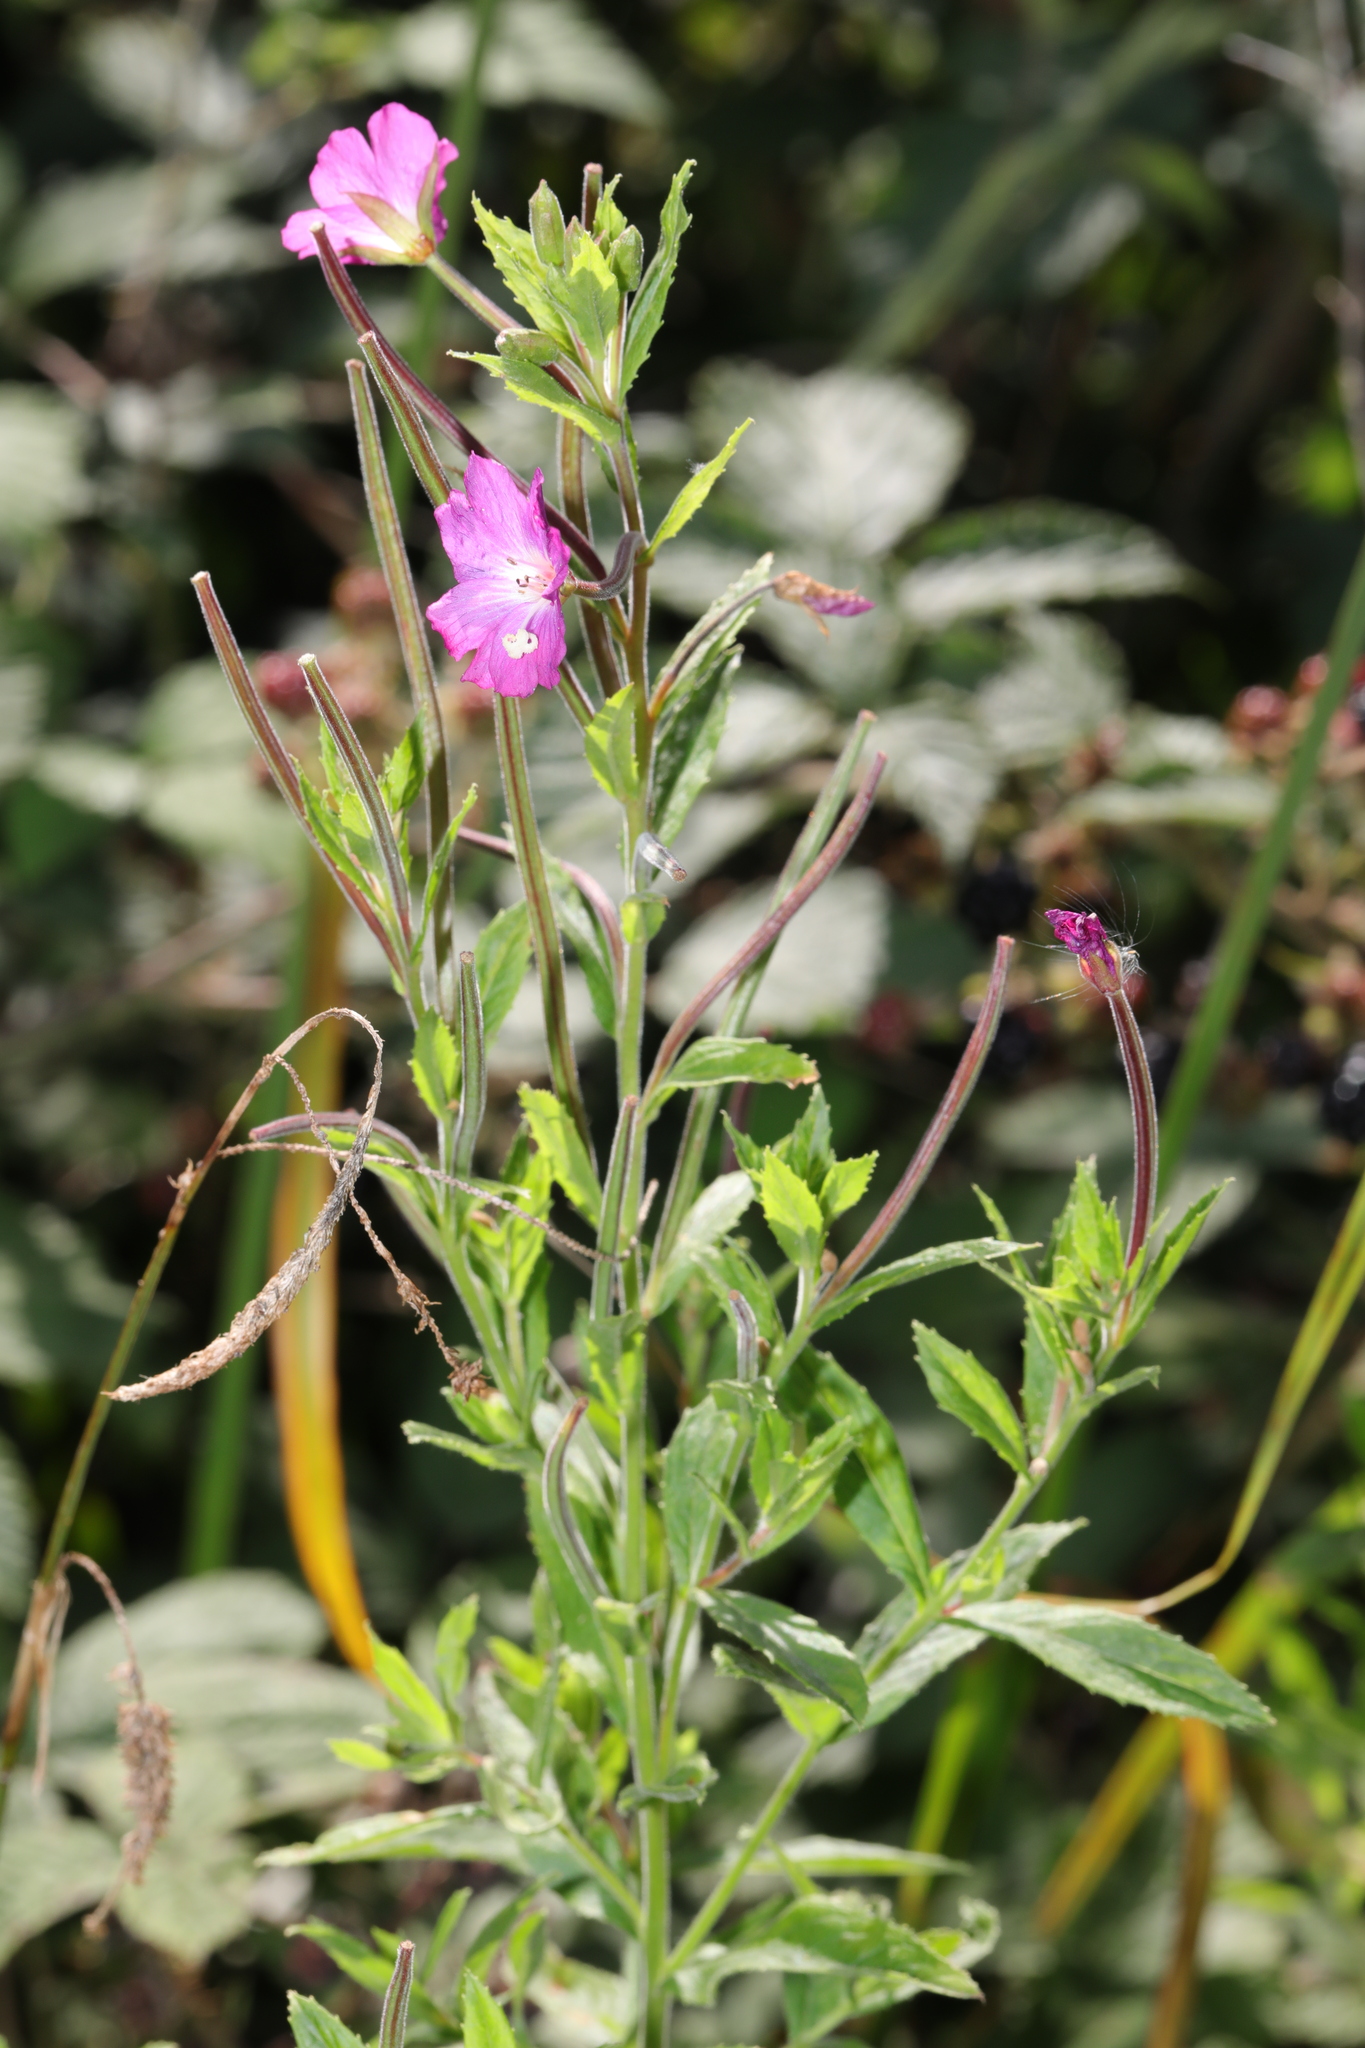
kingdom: Plantae
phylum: Tracheophyta
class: Magnoliopsida
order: Myrtales
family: Onagraceae
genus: Epilobium
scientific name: Epilobium hirsutum
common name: Great willowherb
